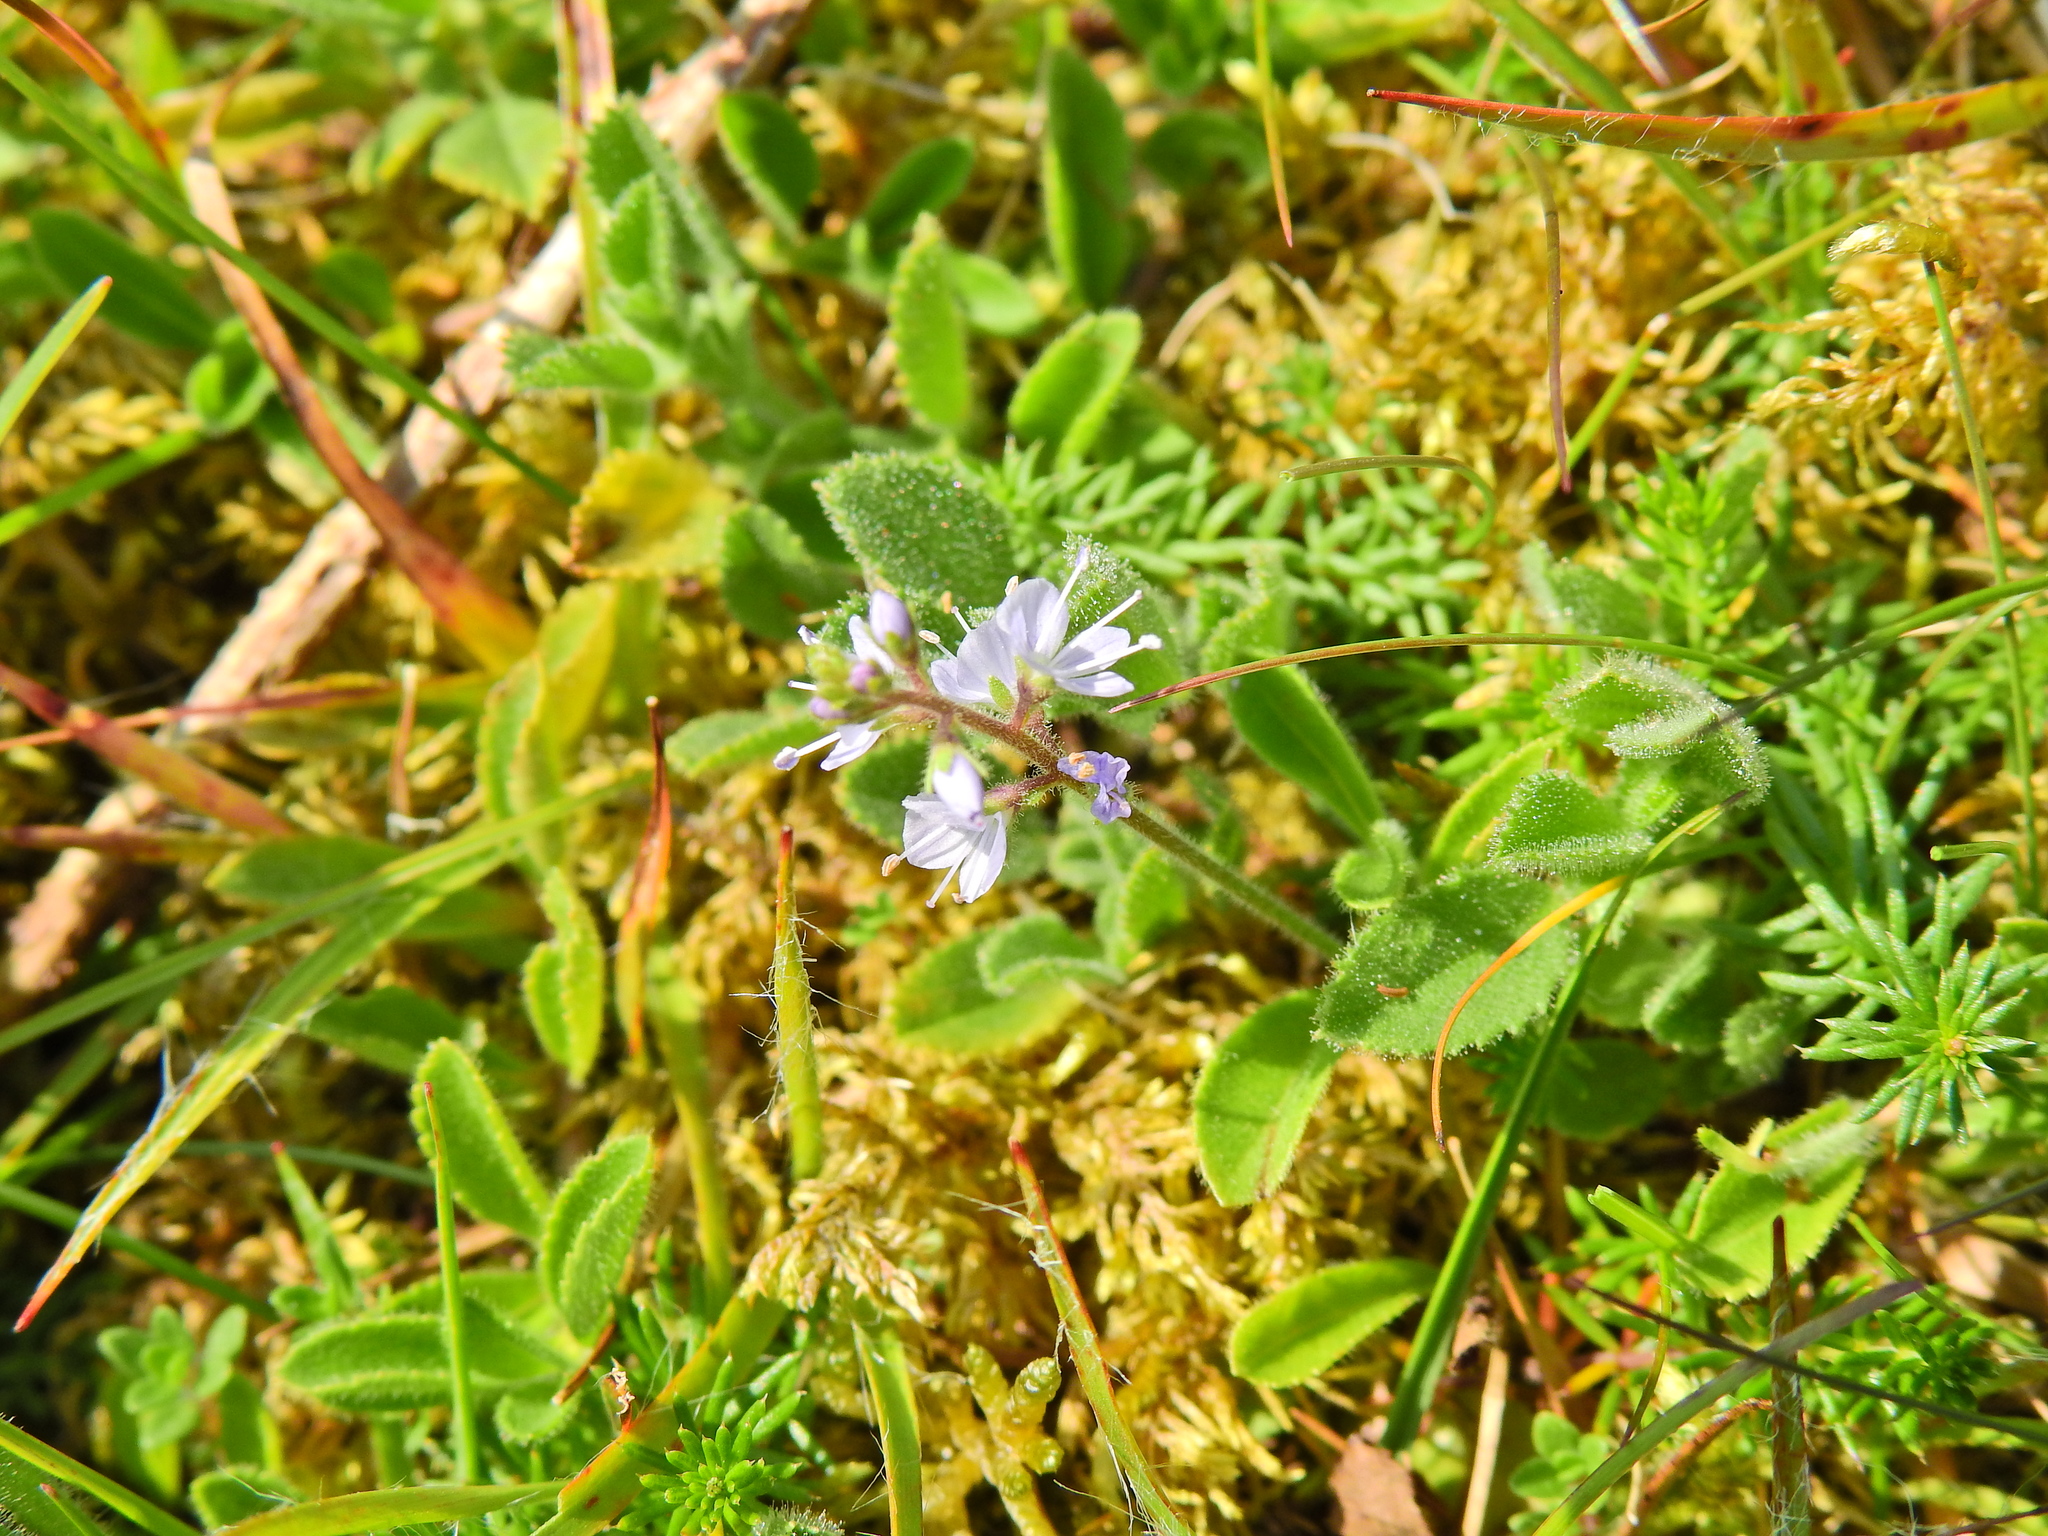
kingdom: Plantae
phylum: Tracheophyta
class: Magnoliopsida
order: Lamiales
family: Plantaginaceae
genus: Veronica
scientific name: Veronica officinalis
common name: Common speedwell
